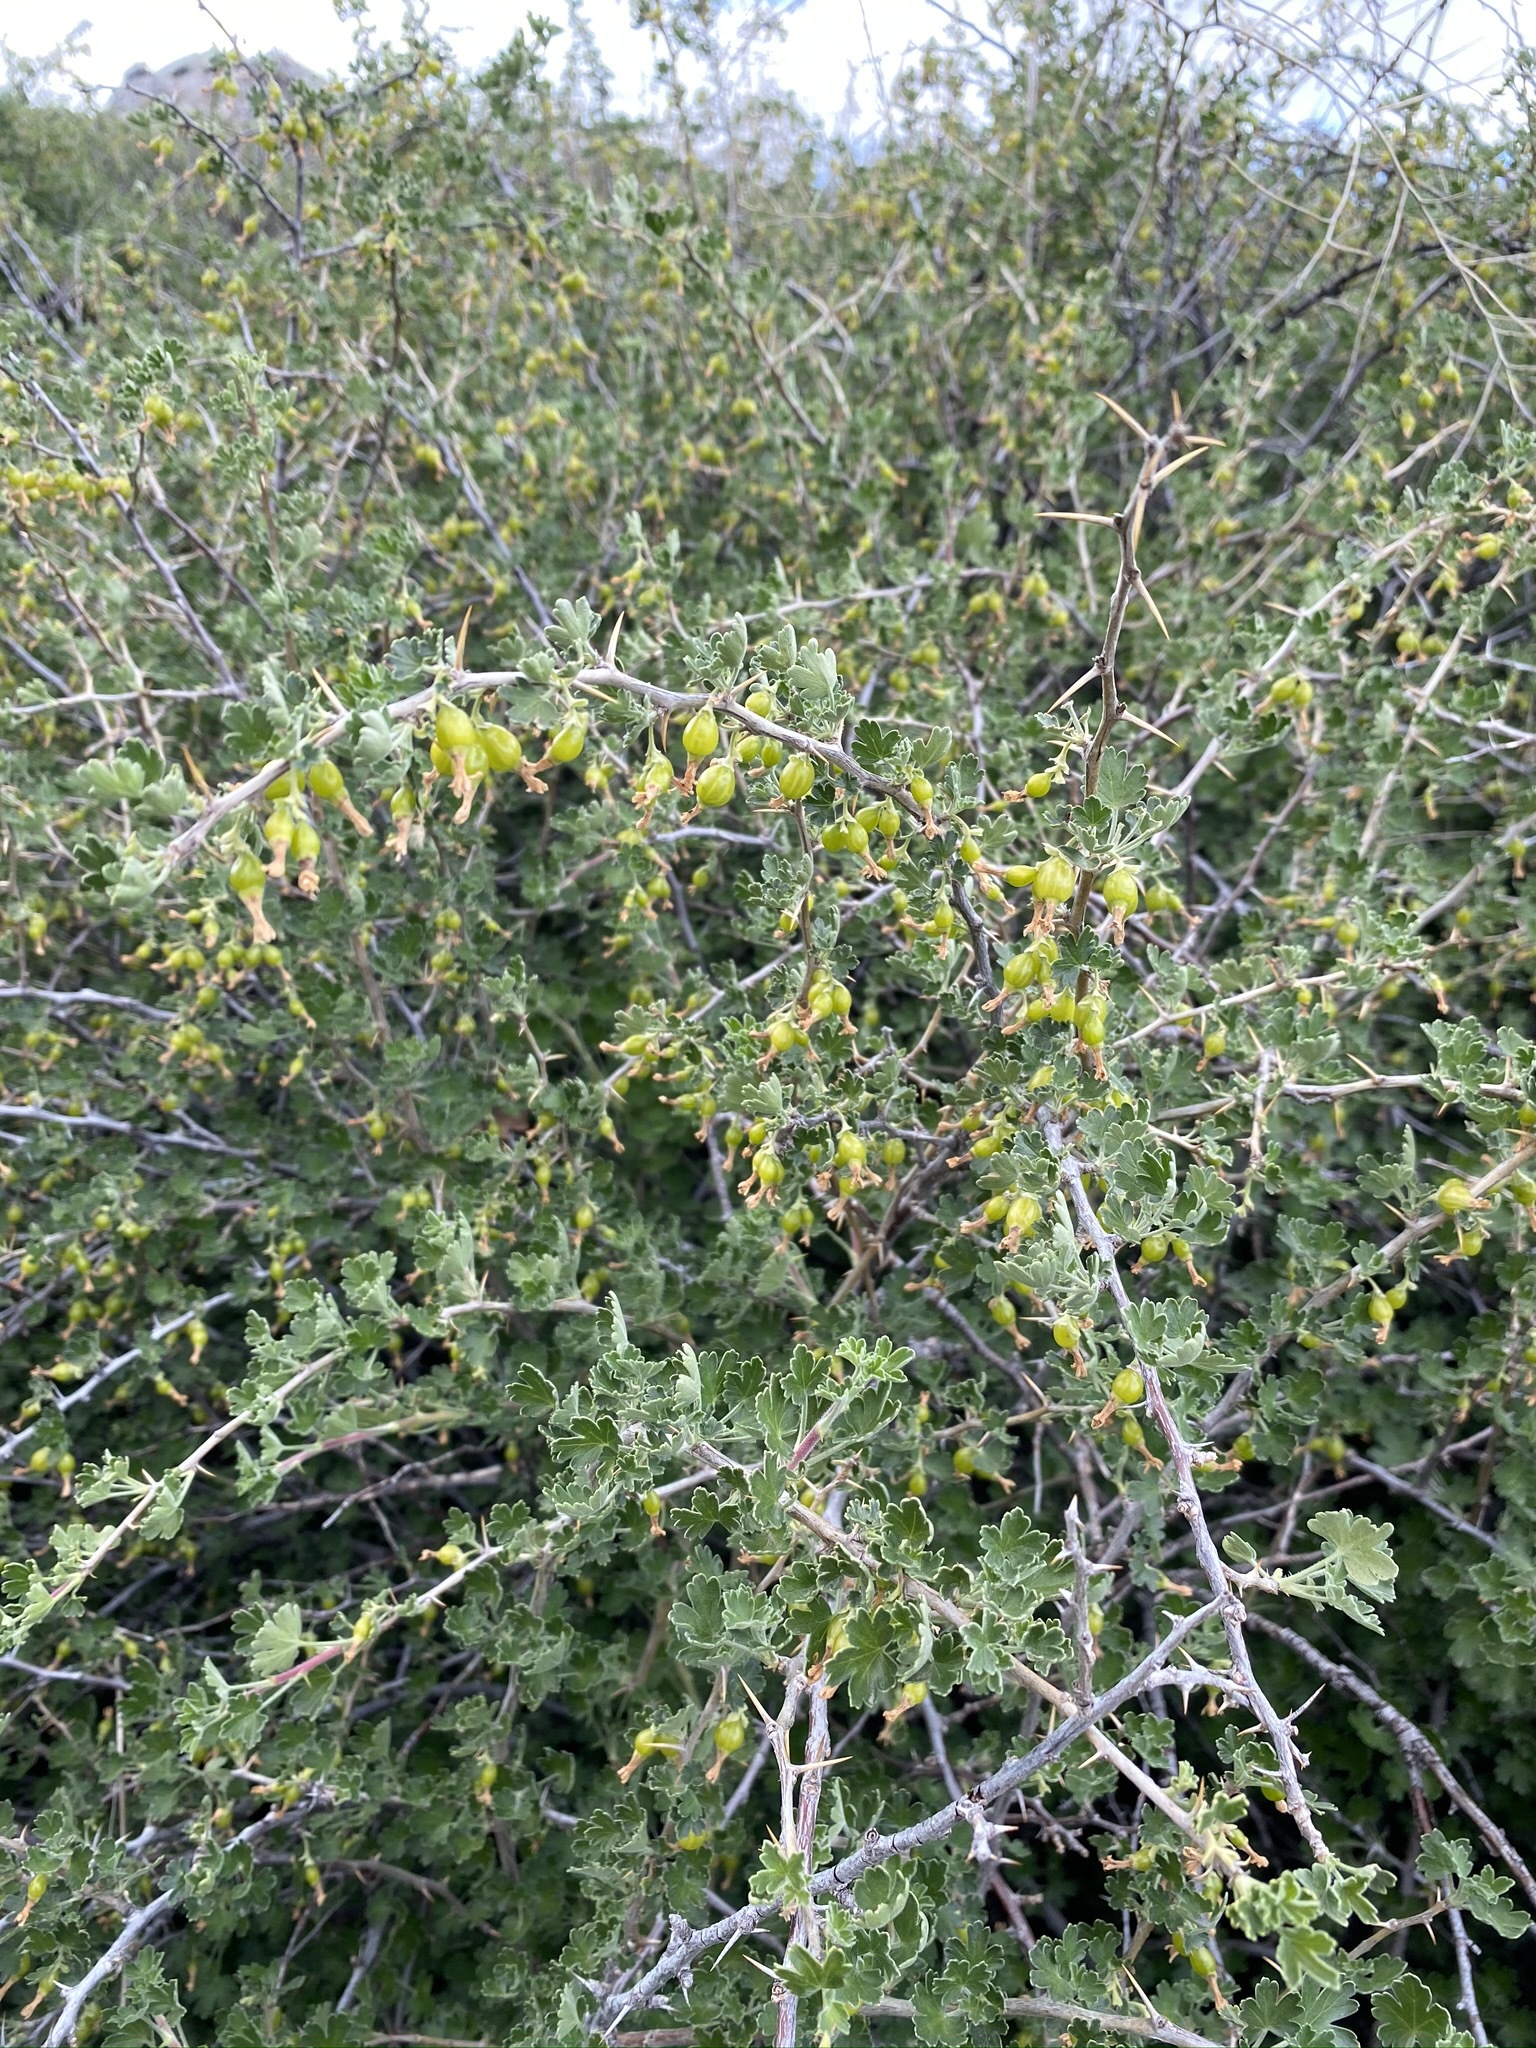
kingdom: Plantae
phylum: Tracheophyta
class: Magnoliopsida
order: Saxifragales
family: Grossulariaceae
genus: Ribes
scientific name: Ribes quercetorum
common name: Oak gooseberry
